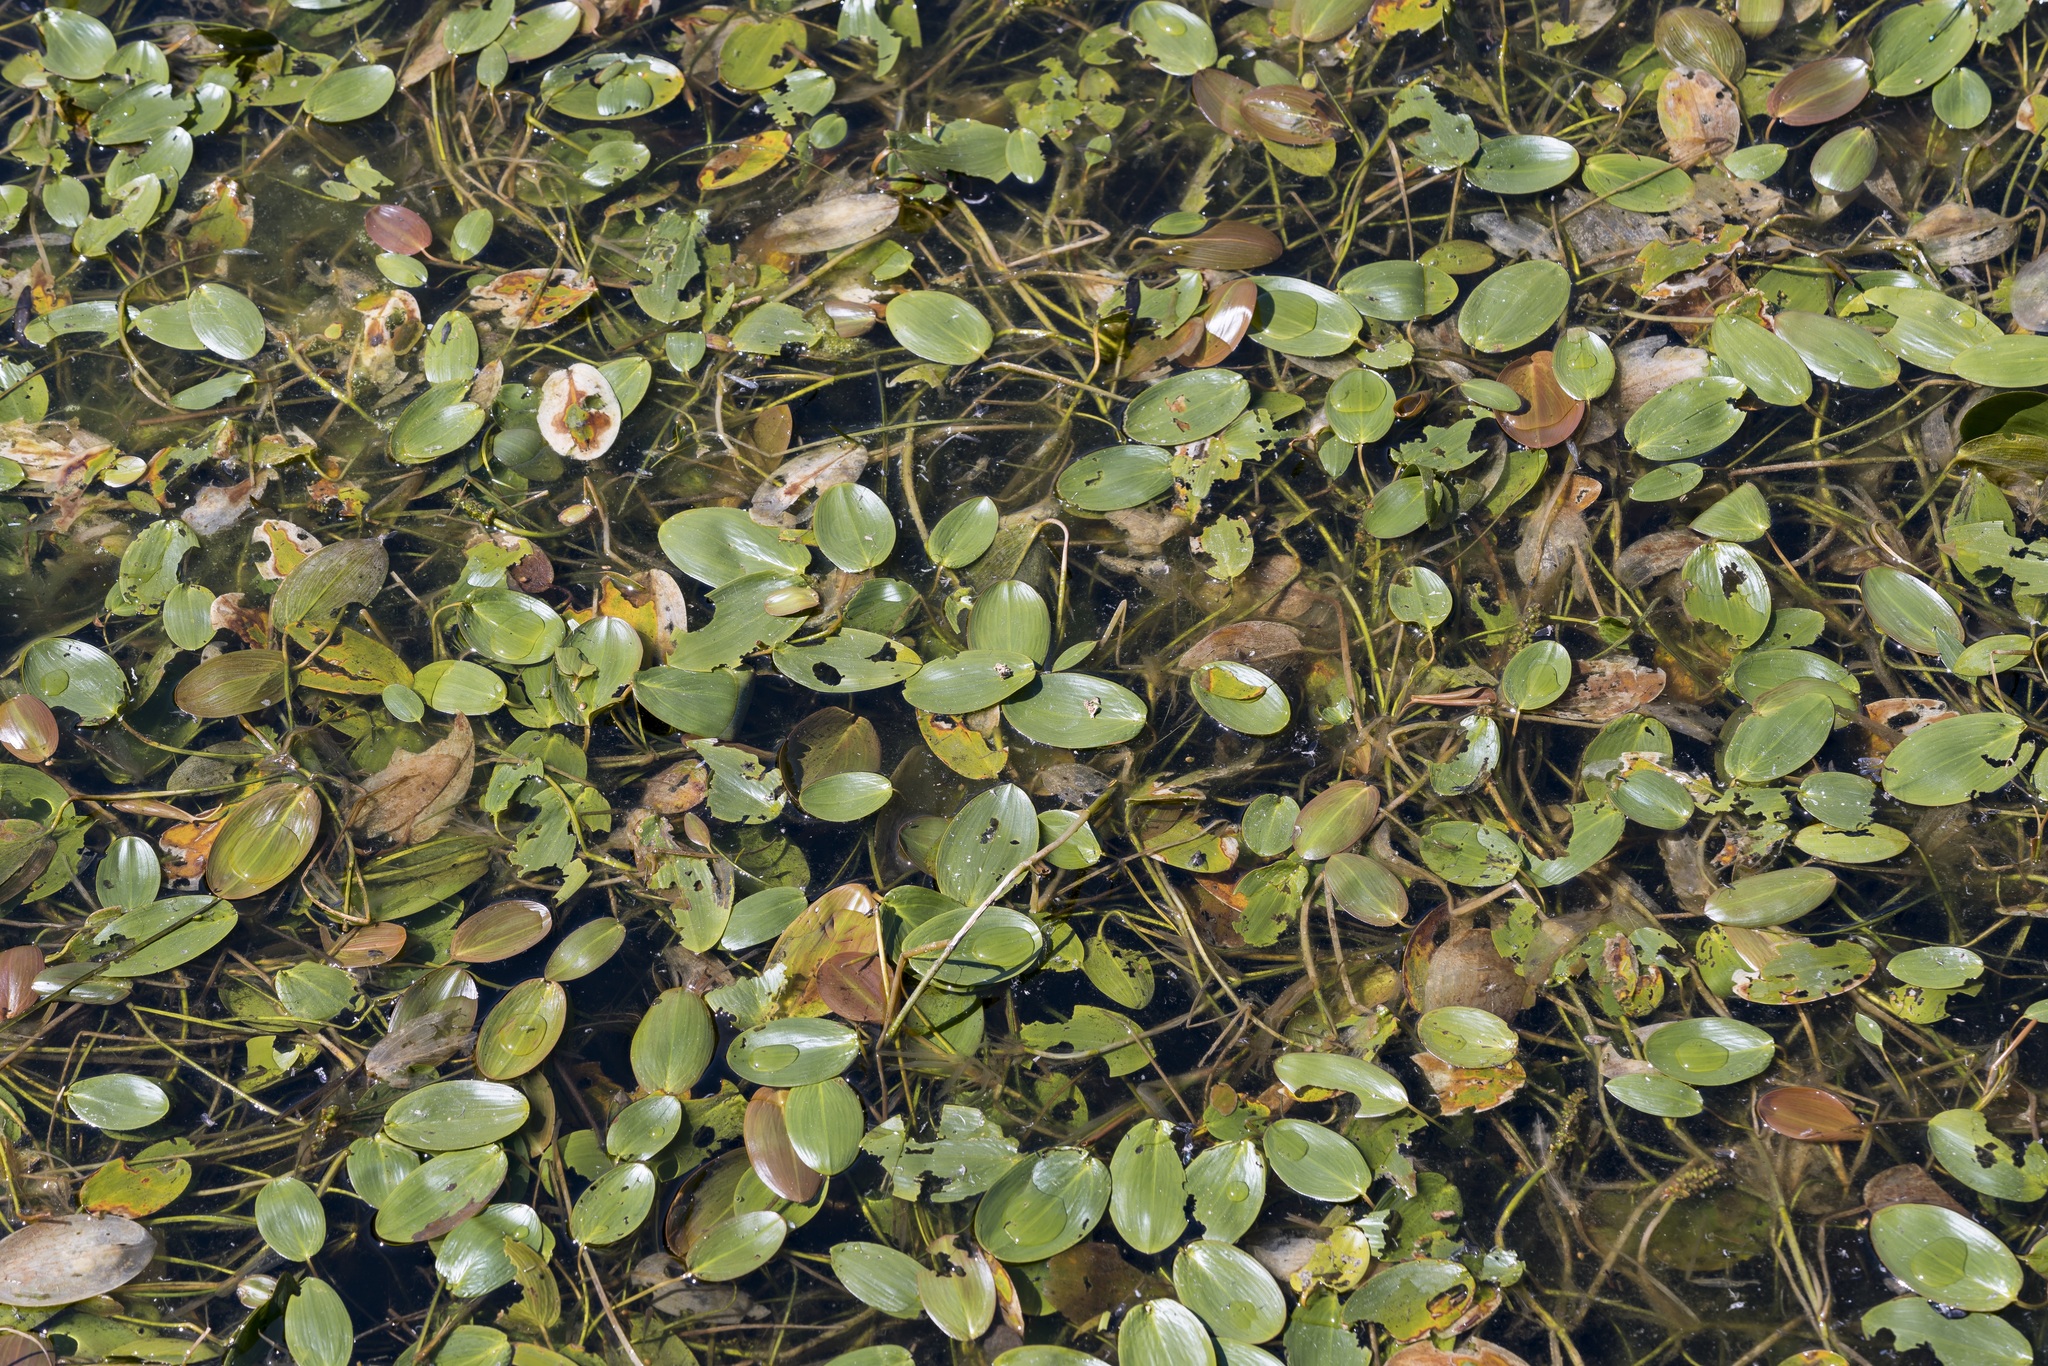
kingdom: Plantae
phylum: Tracheophyta
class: Liliopsida
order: Alismatales
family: Potamogetonaceae
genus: Potamogeton
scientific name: Potamogeton natans
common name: Broad-leaved pondweed
